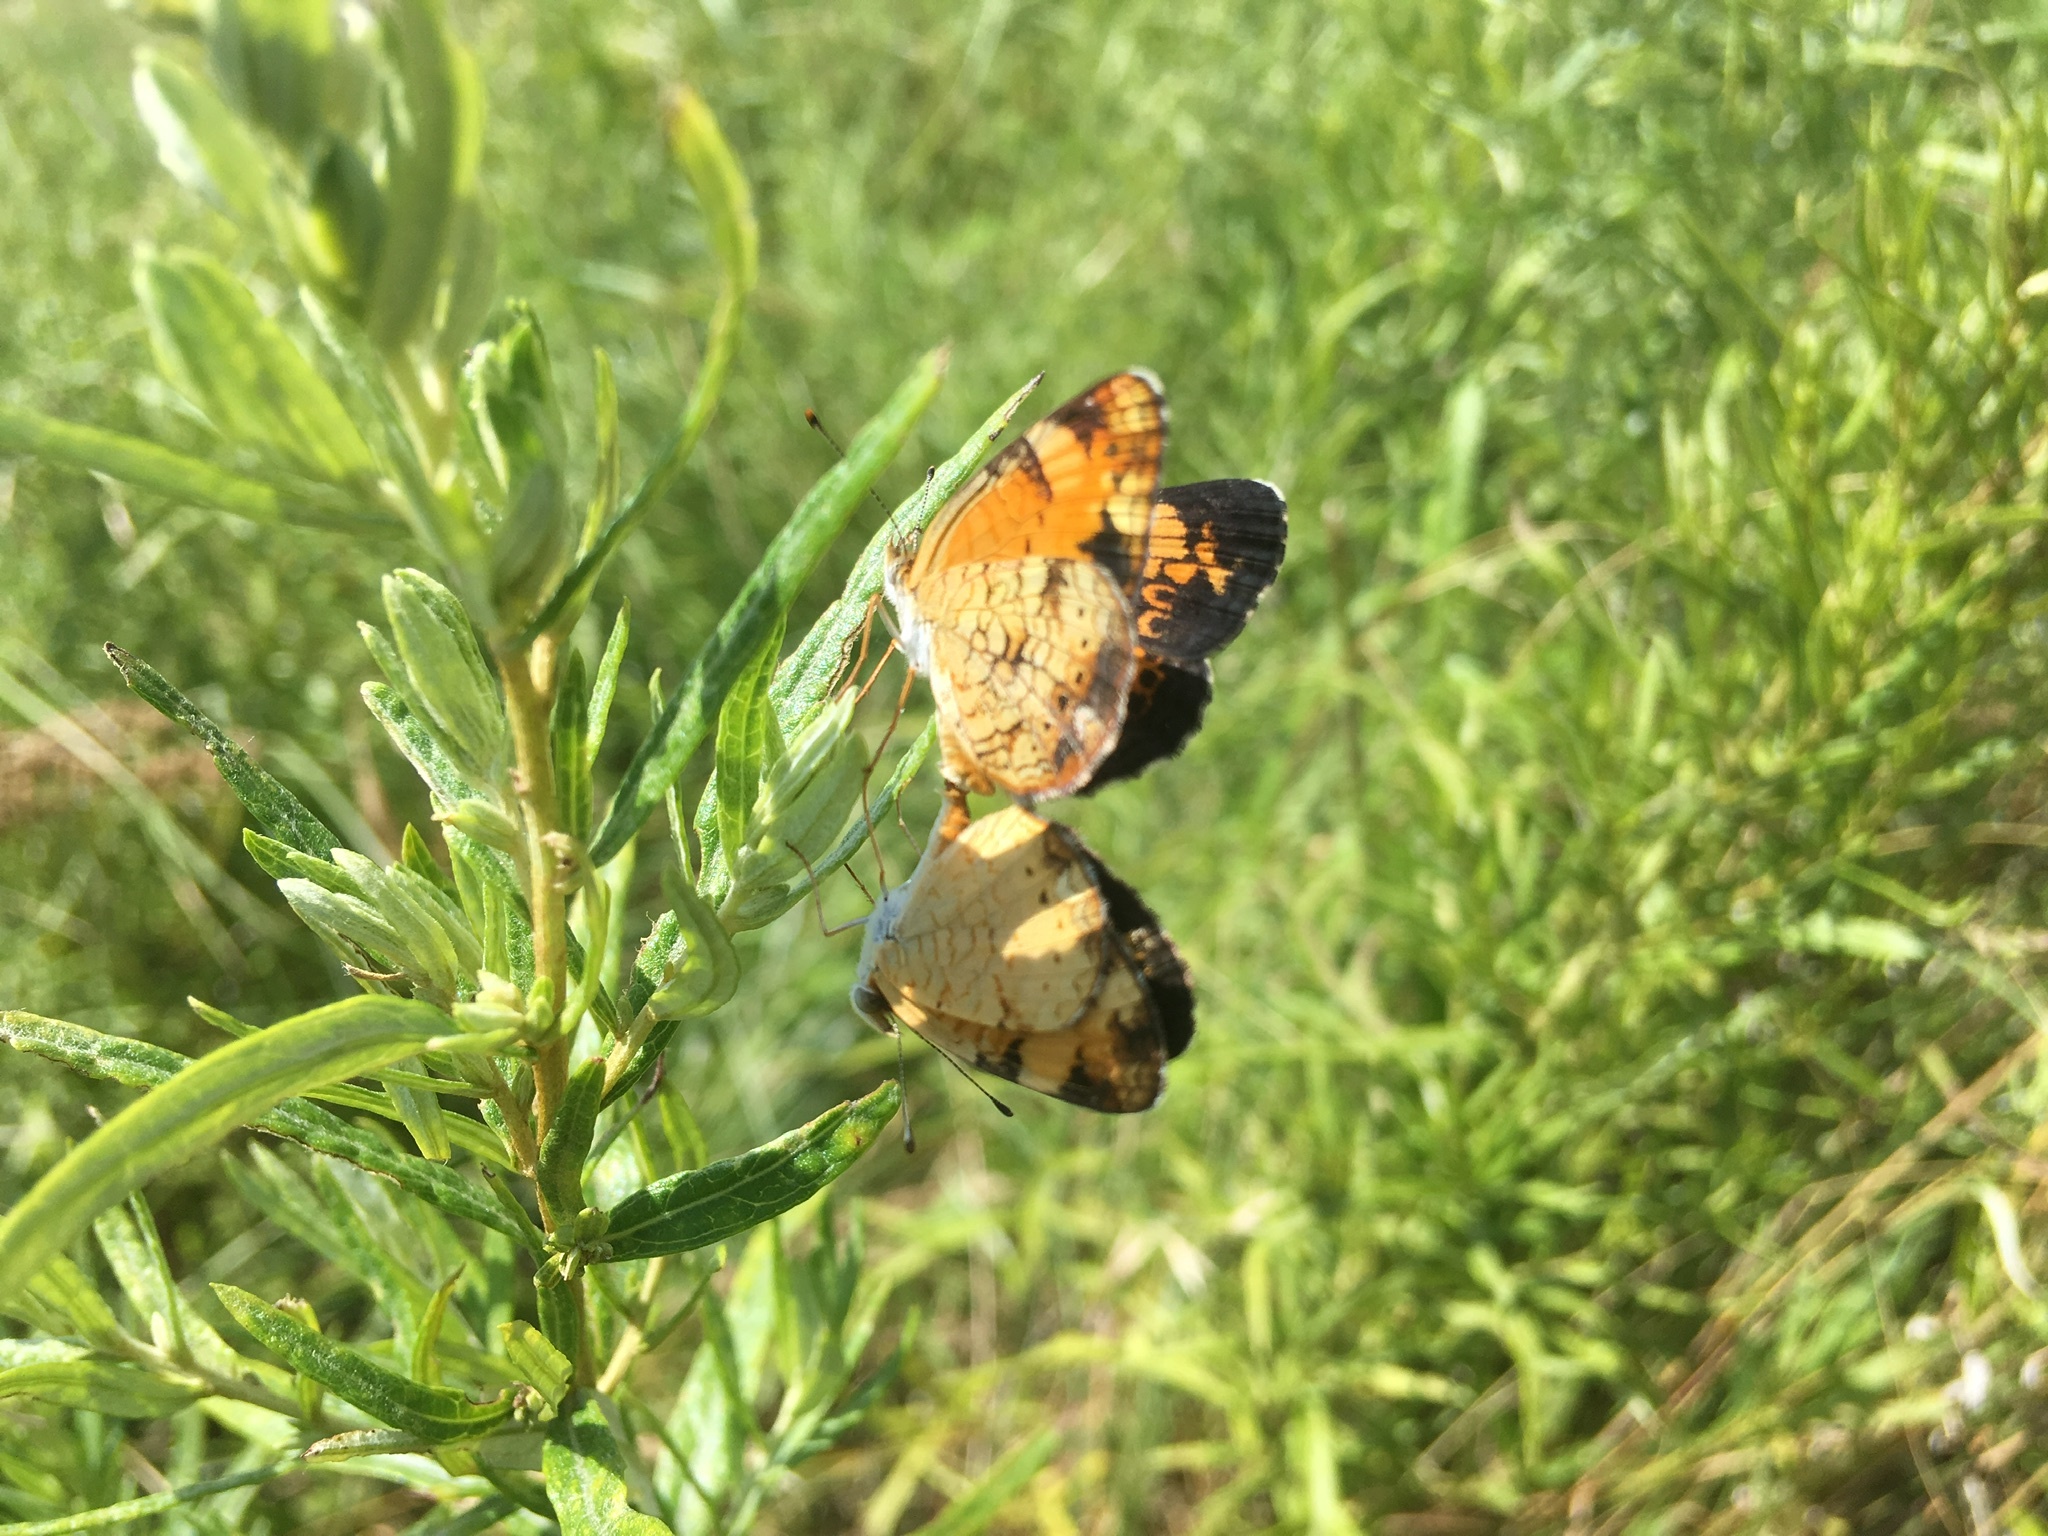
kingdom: Animalia
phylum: Arthropoda
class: Insecta
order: Lepidoptera
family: Nymphalidae
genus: Phyciodes
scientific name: Phyciodes tharos
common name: Pearl crescent
